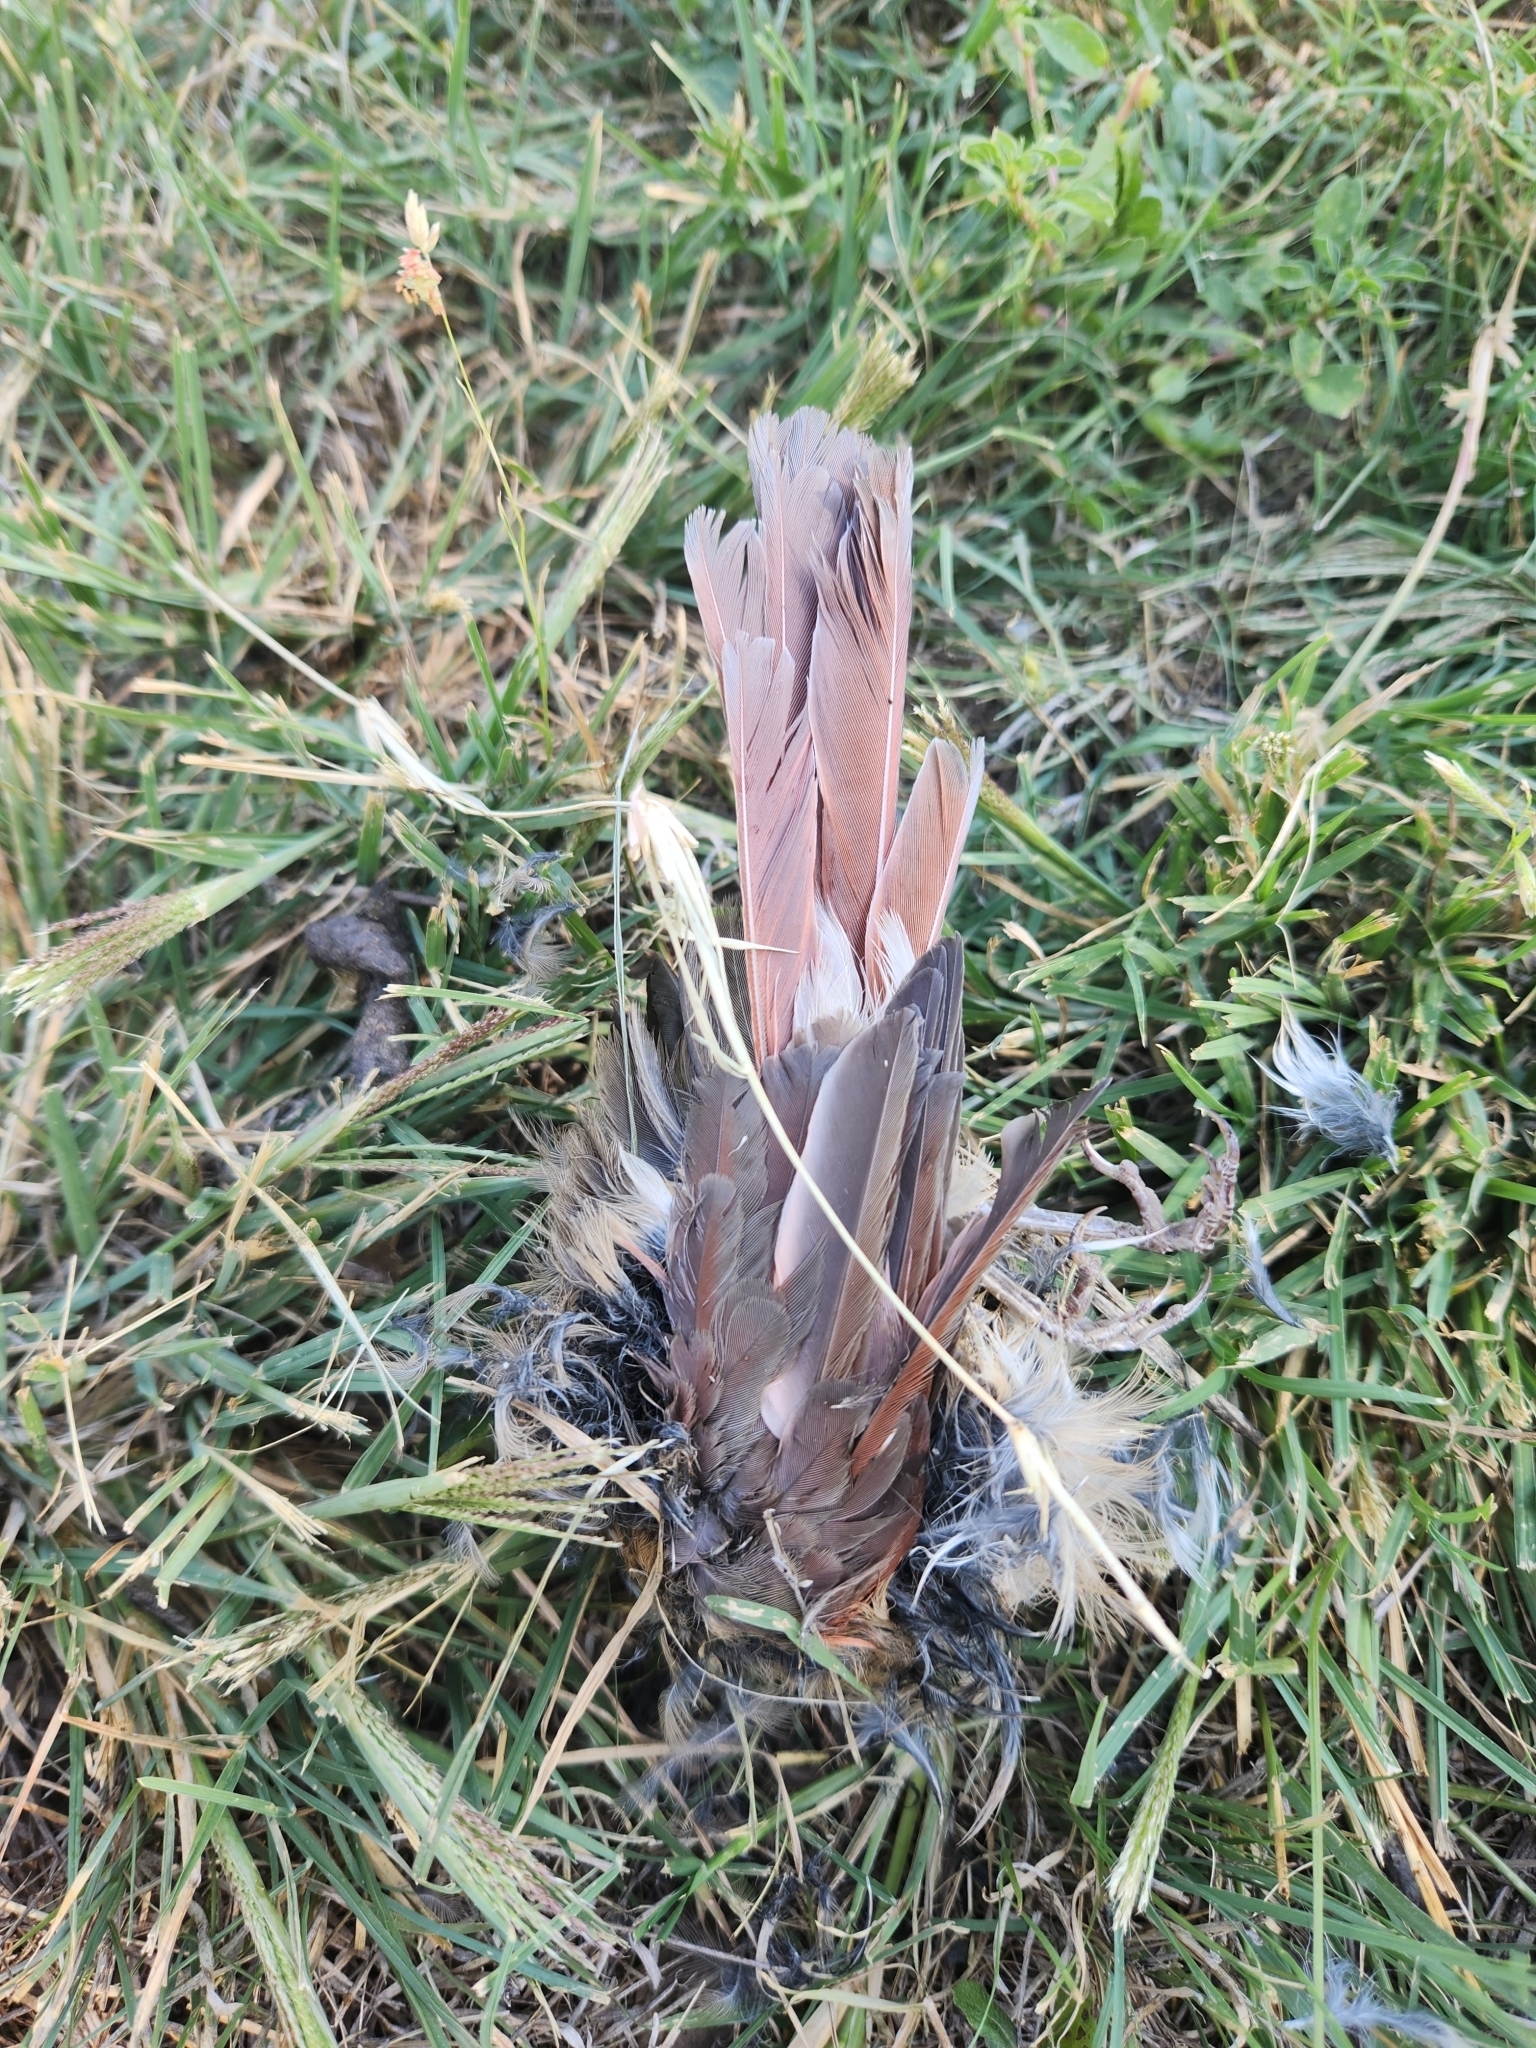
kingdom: Animalia
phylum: Chordata
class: Aves
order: Passeriformes
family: Cardinalidae
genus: Cardinalis
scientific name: Cardinalis cardinalis
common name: Northern cardinal
